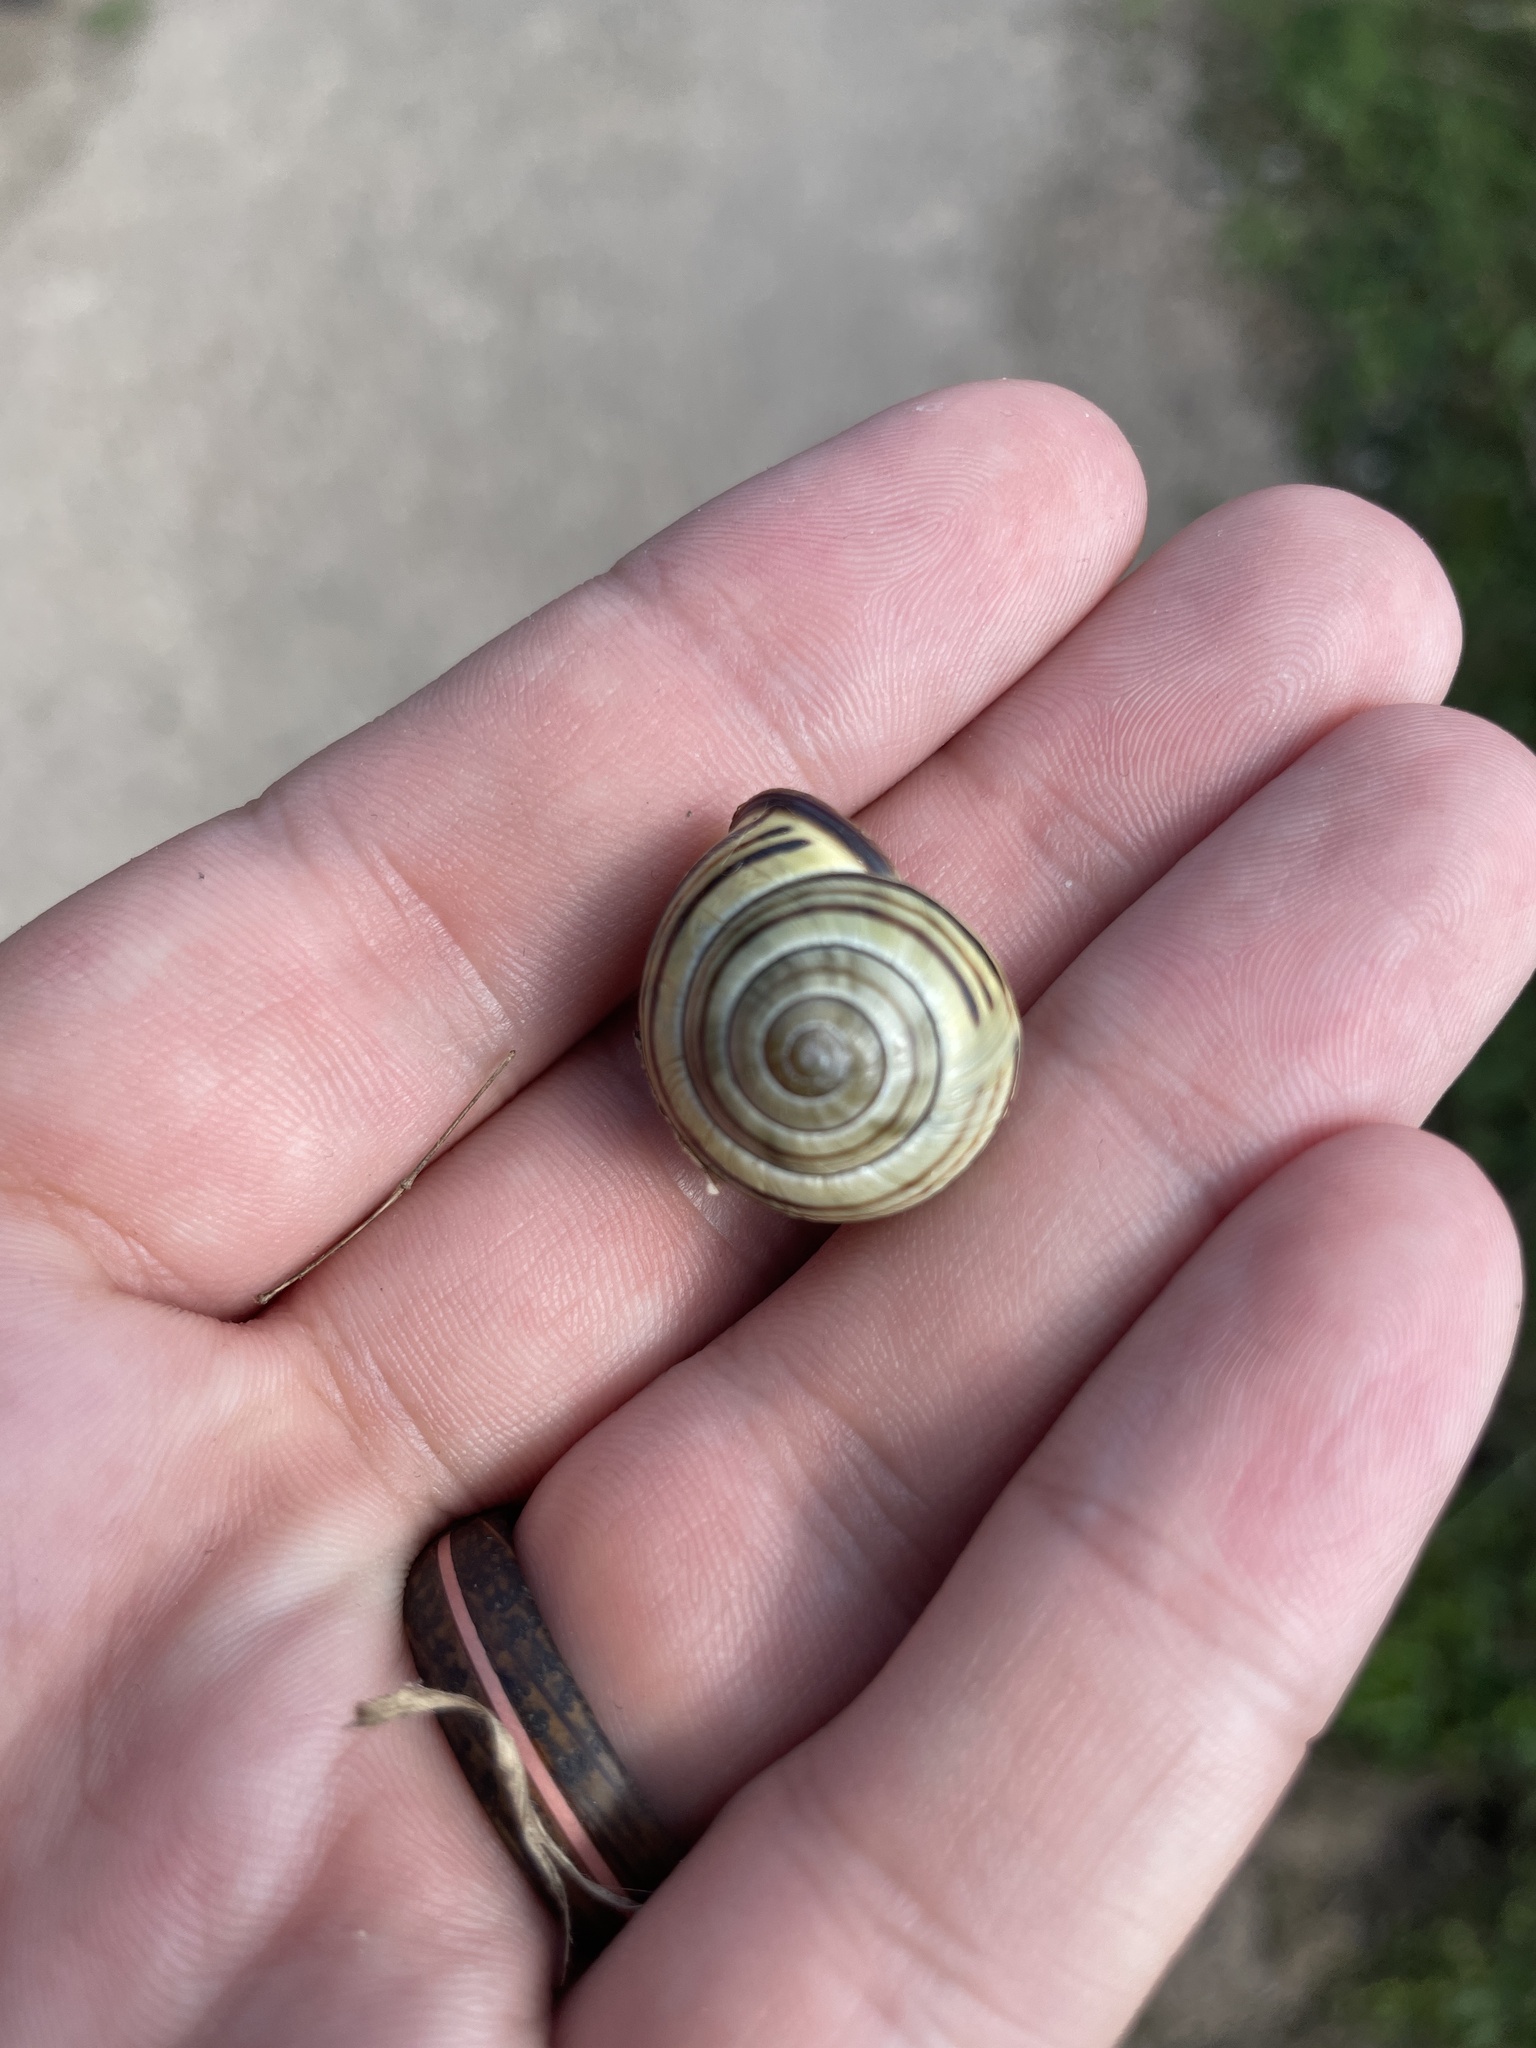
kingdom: Animalia
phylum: Mollusca
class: Gastropoda
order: Stylommatophora
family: Helicidae
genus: Cepaea
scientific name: Cepaea nemoralis
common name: Grovesnail
